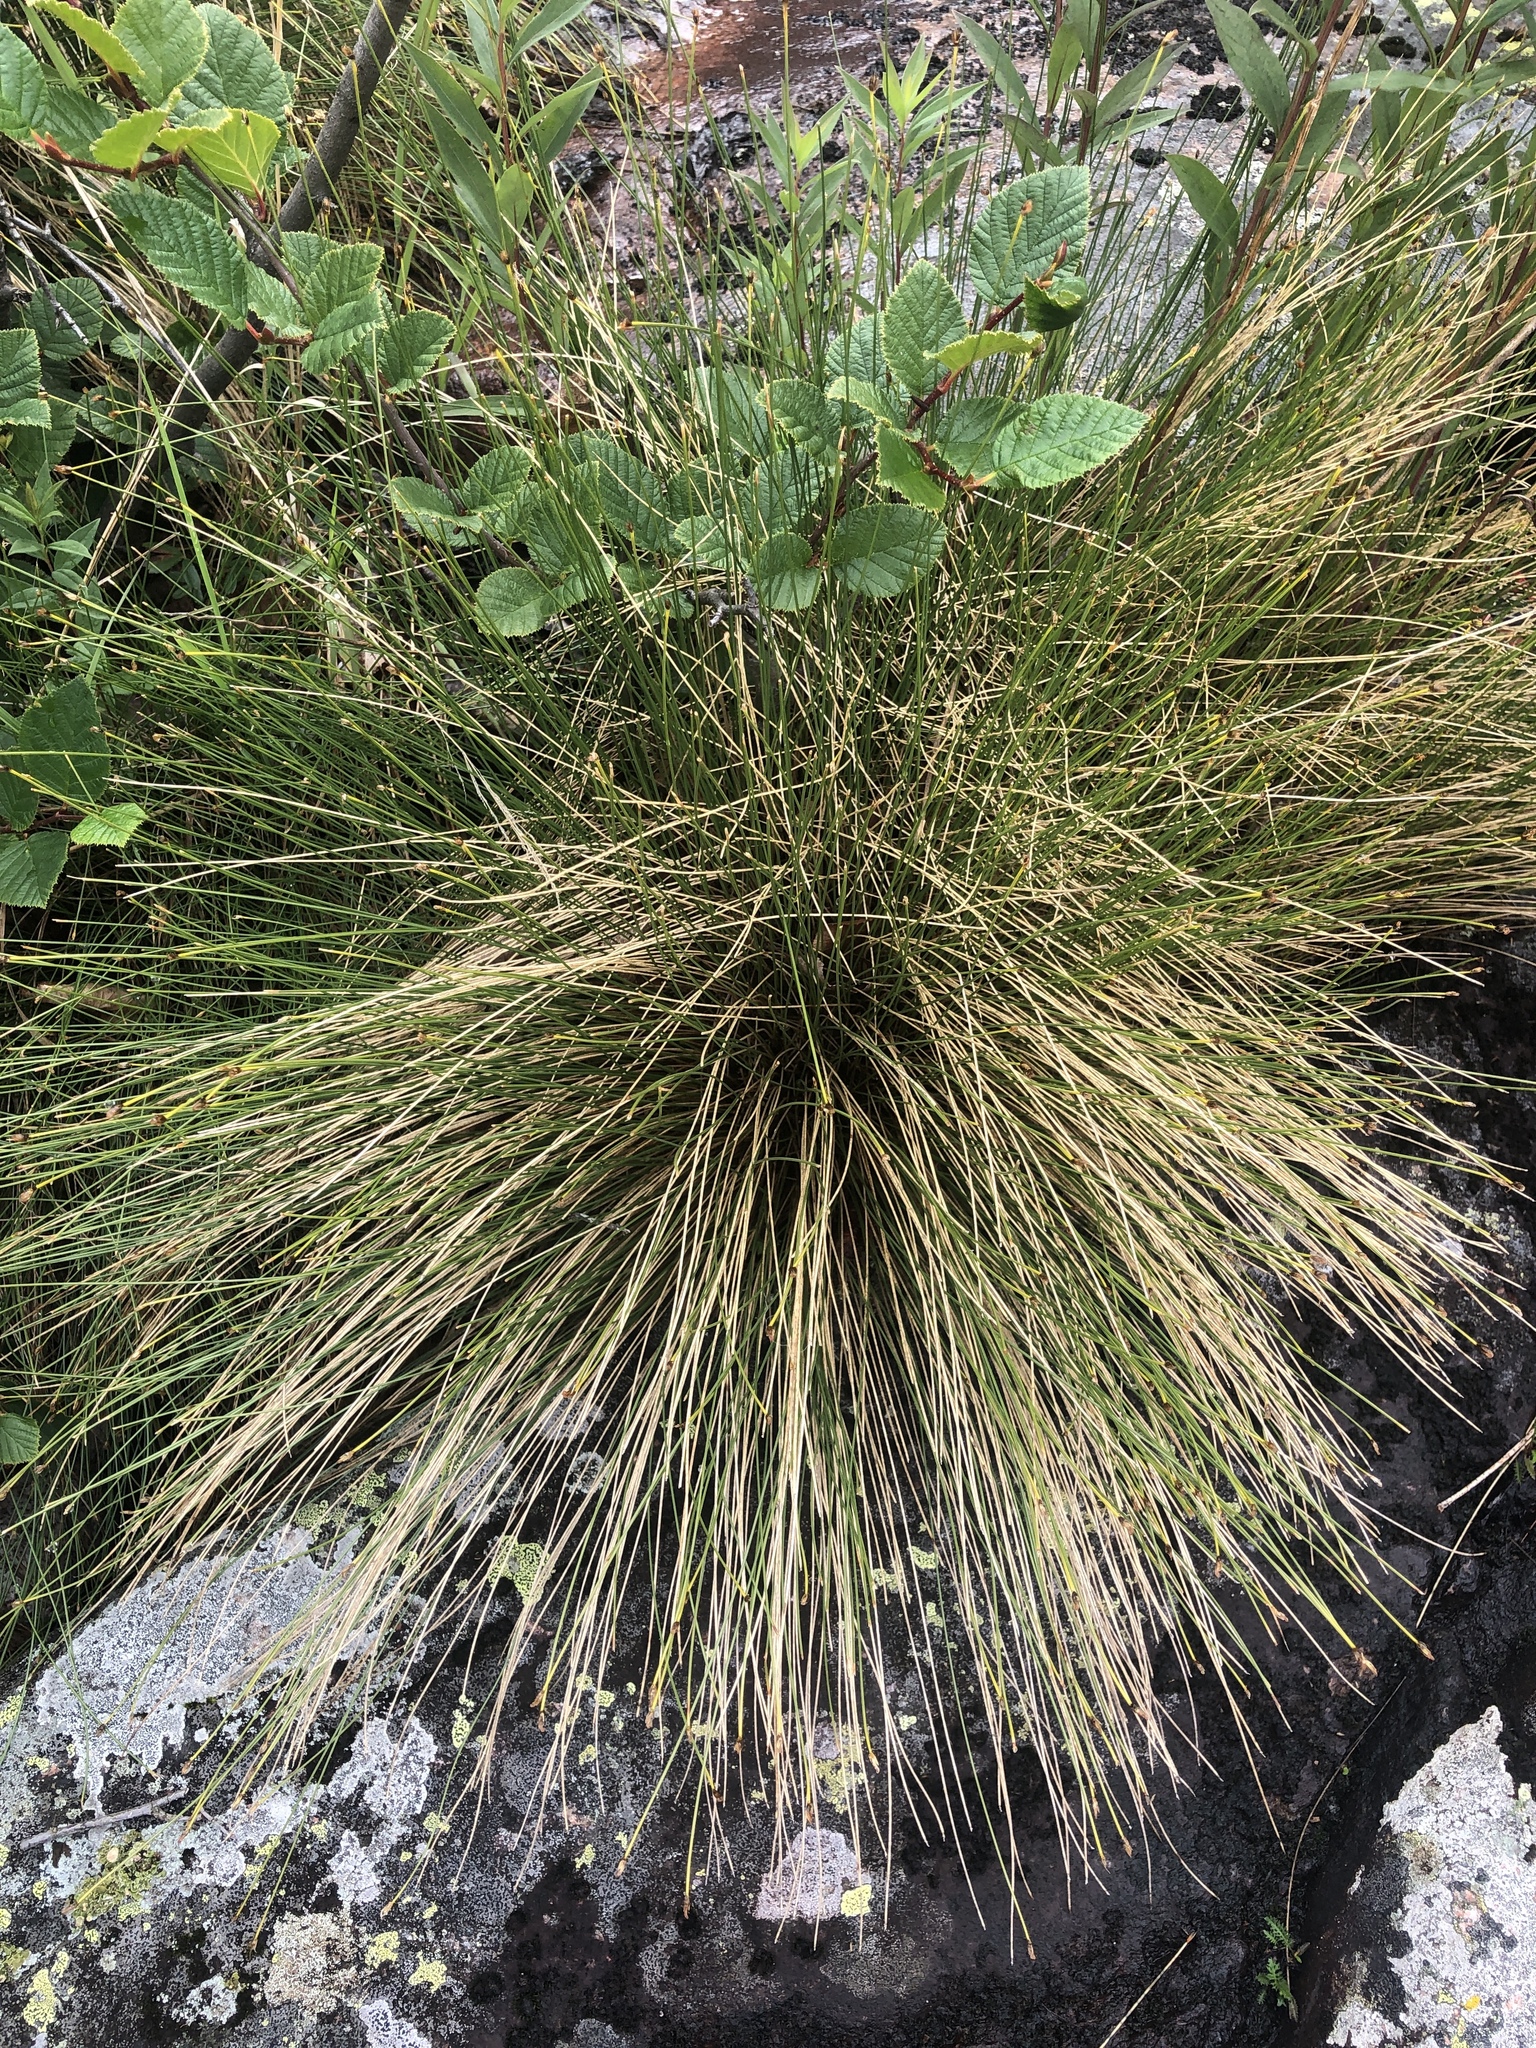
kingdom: Plantae
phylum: Tracheophyta
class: Liliopsida
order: Poales
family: Cyperaceae
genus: Trichophorum
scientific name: Trichophorum cespitosum
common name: Cespitose bulrush
